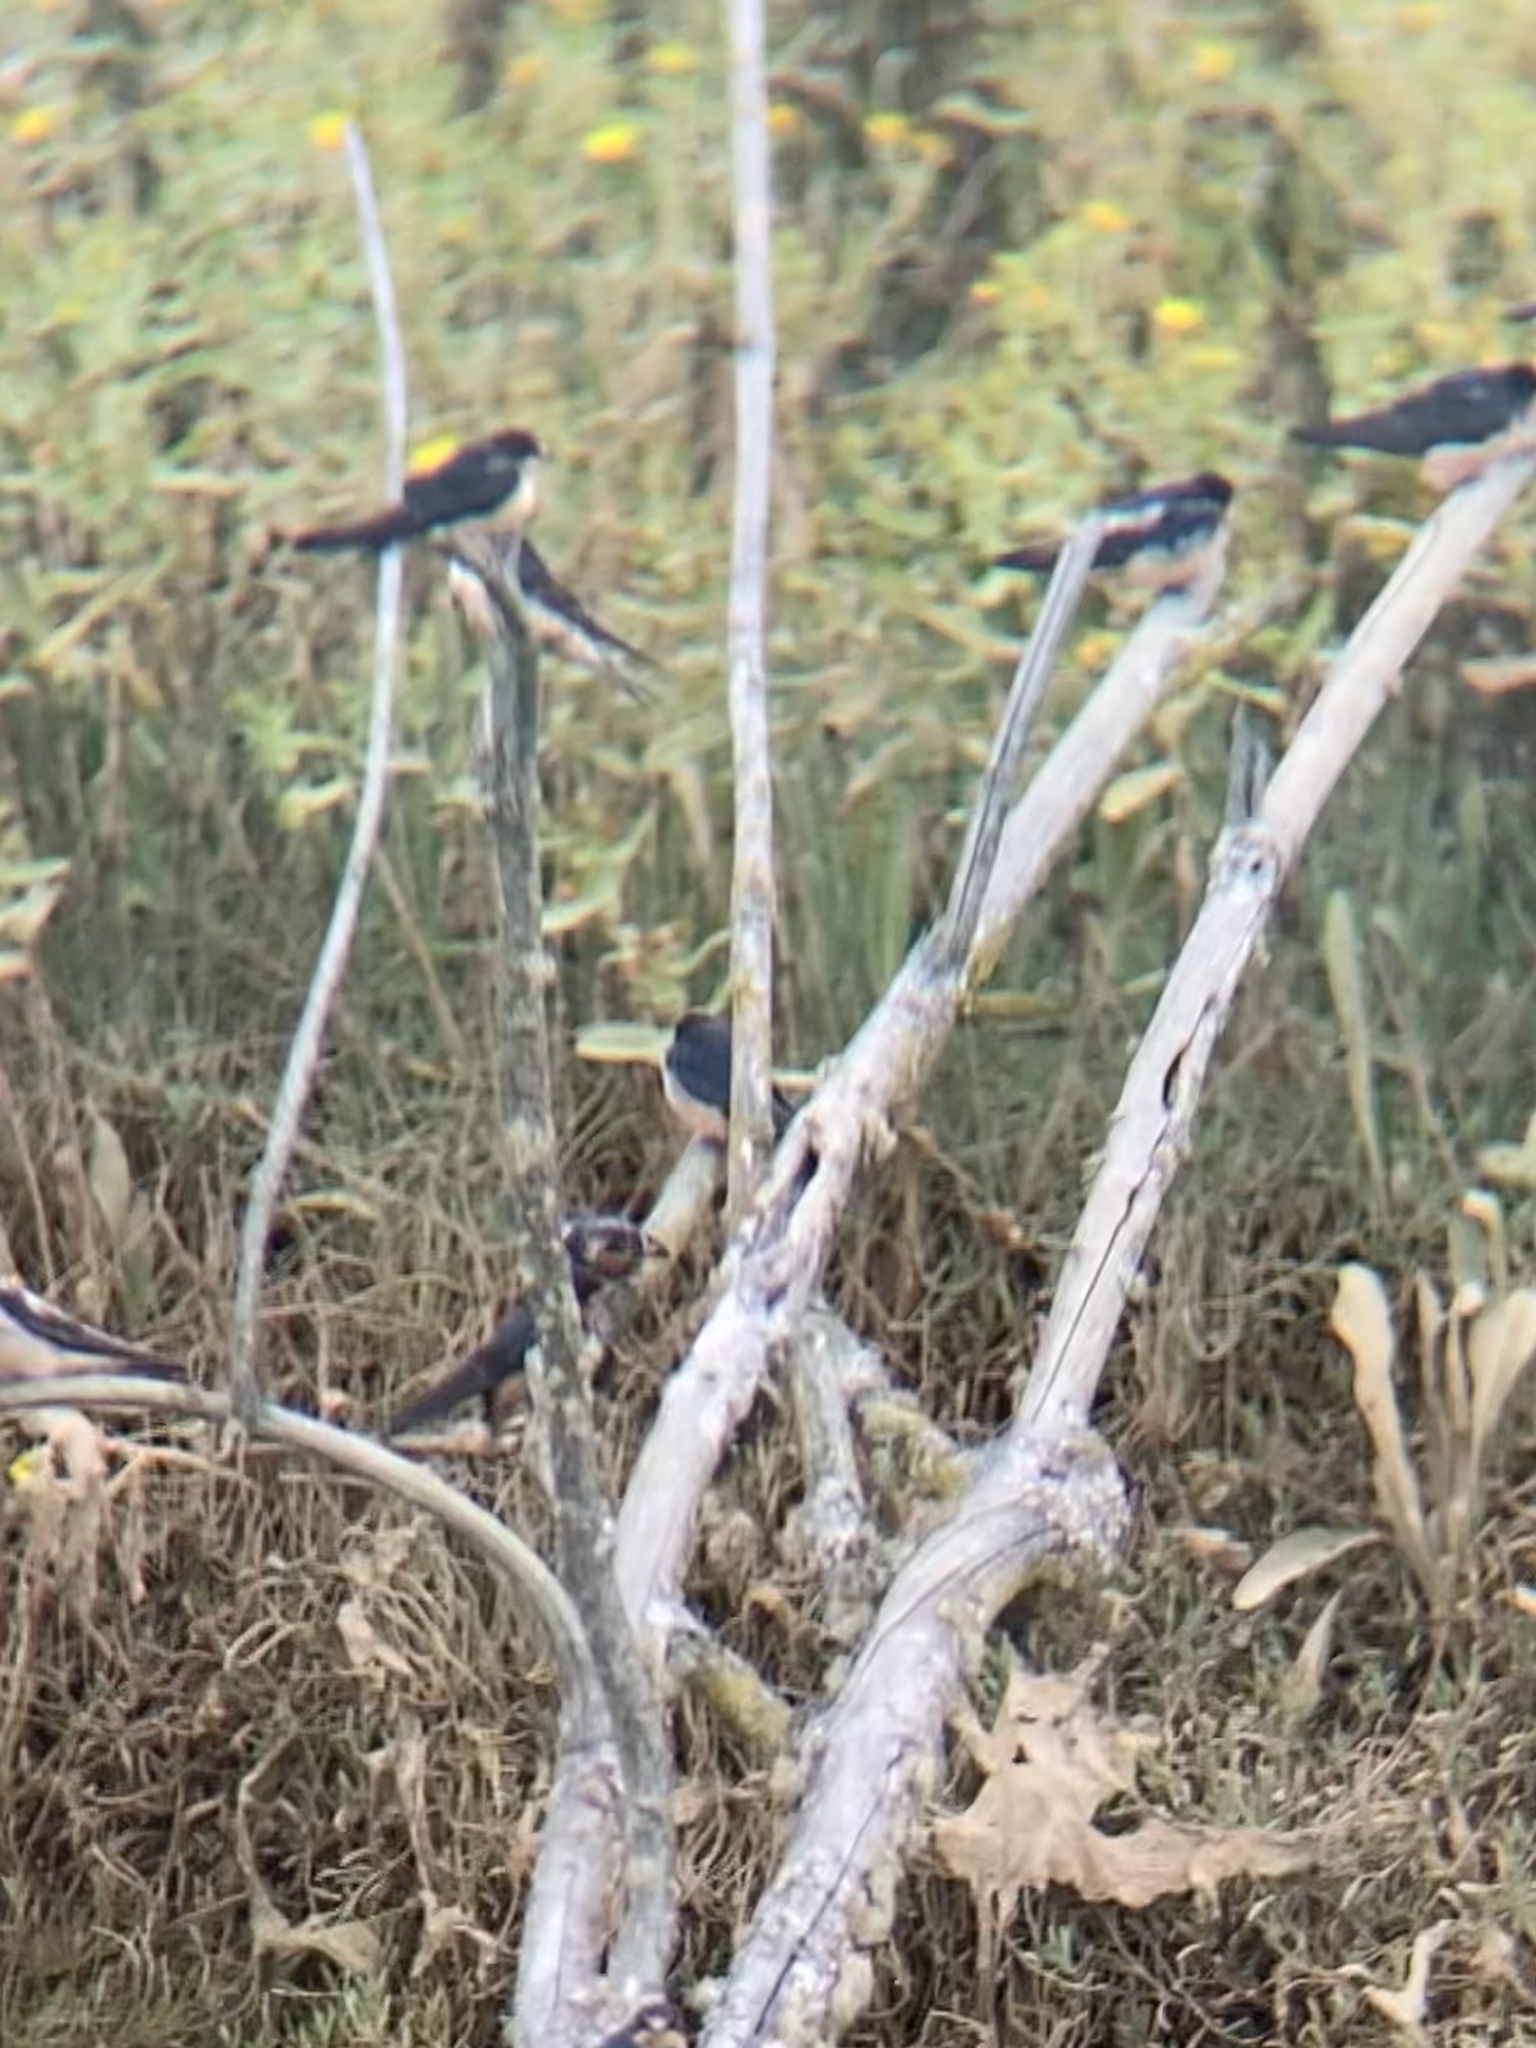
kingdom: Animalia
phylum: Chordata
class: Aves
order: Passeriformes
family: Hirundinidae
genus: Hirundo
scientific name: Hirundo rustica
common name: Barn swallow
